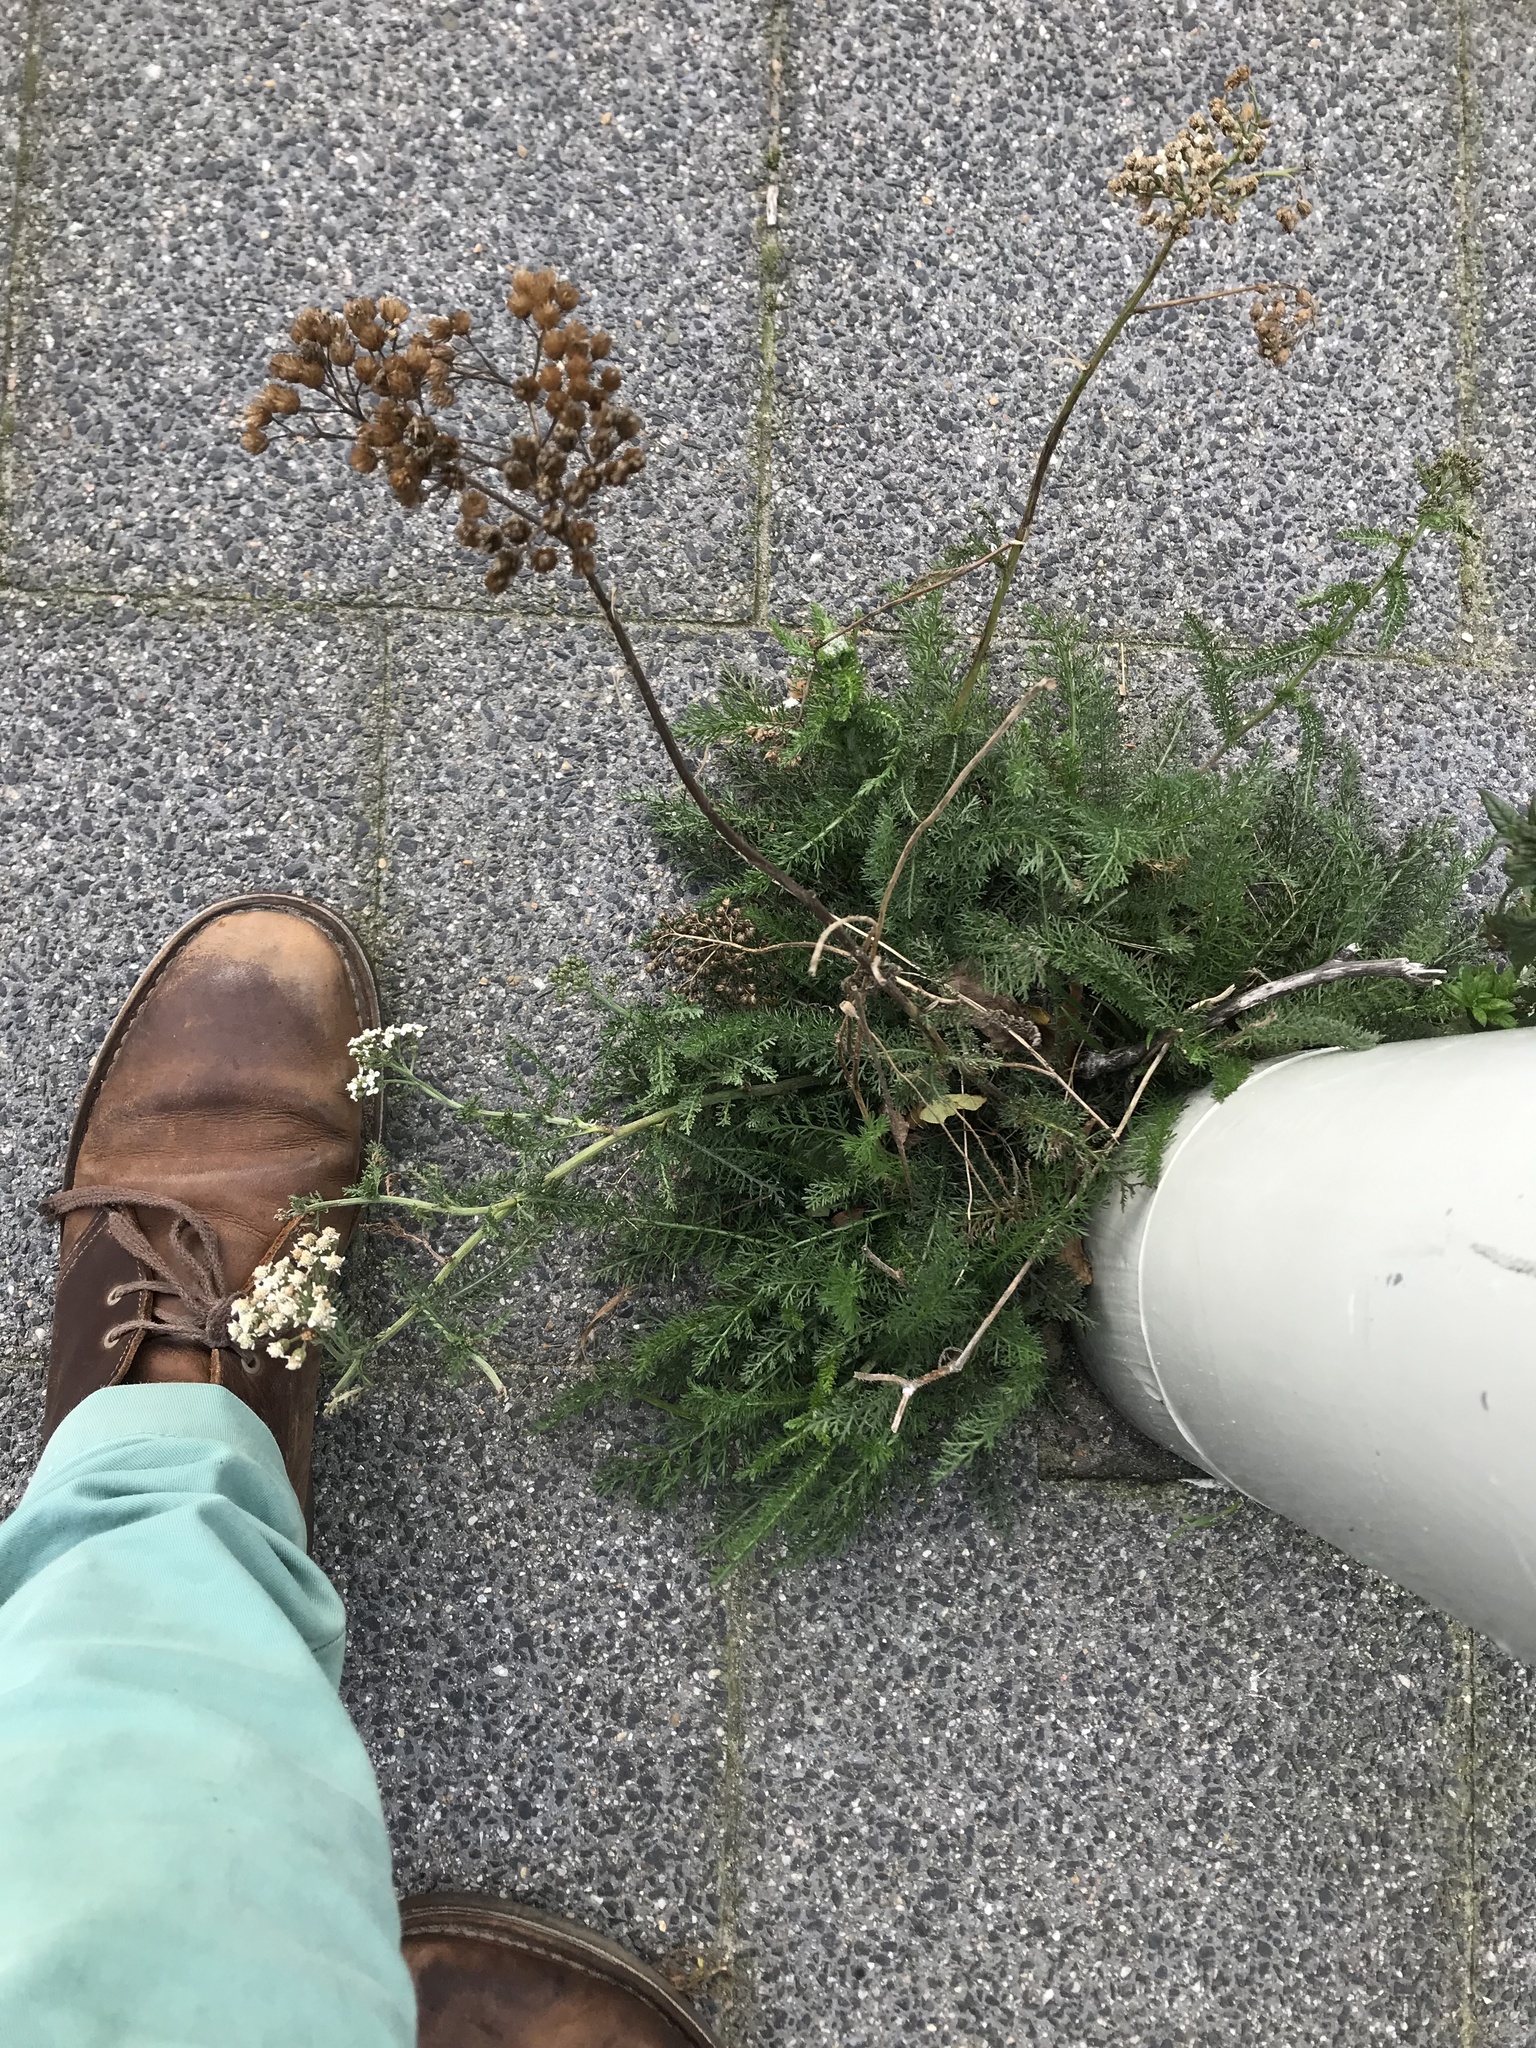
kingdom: Plantae
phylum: Tracheophyta
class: Magnoliopsida
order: Asterales
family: Asteraceae
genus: Achillea
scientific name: Achillea millefolium
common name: Yarrow
